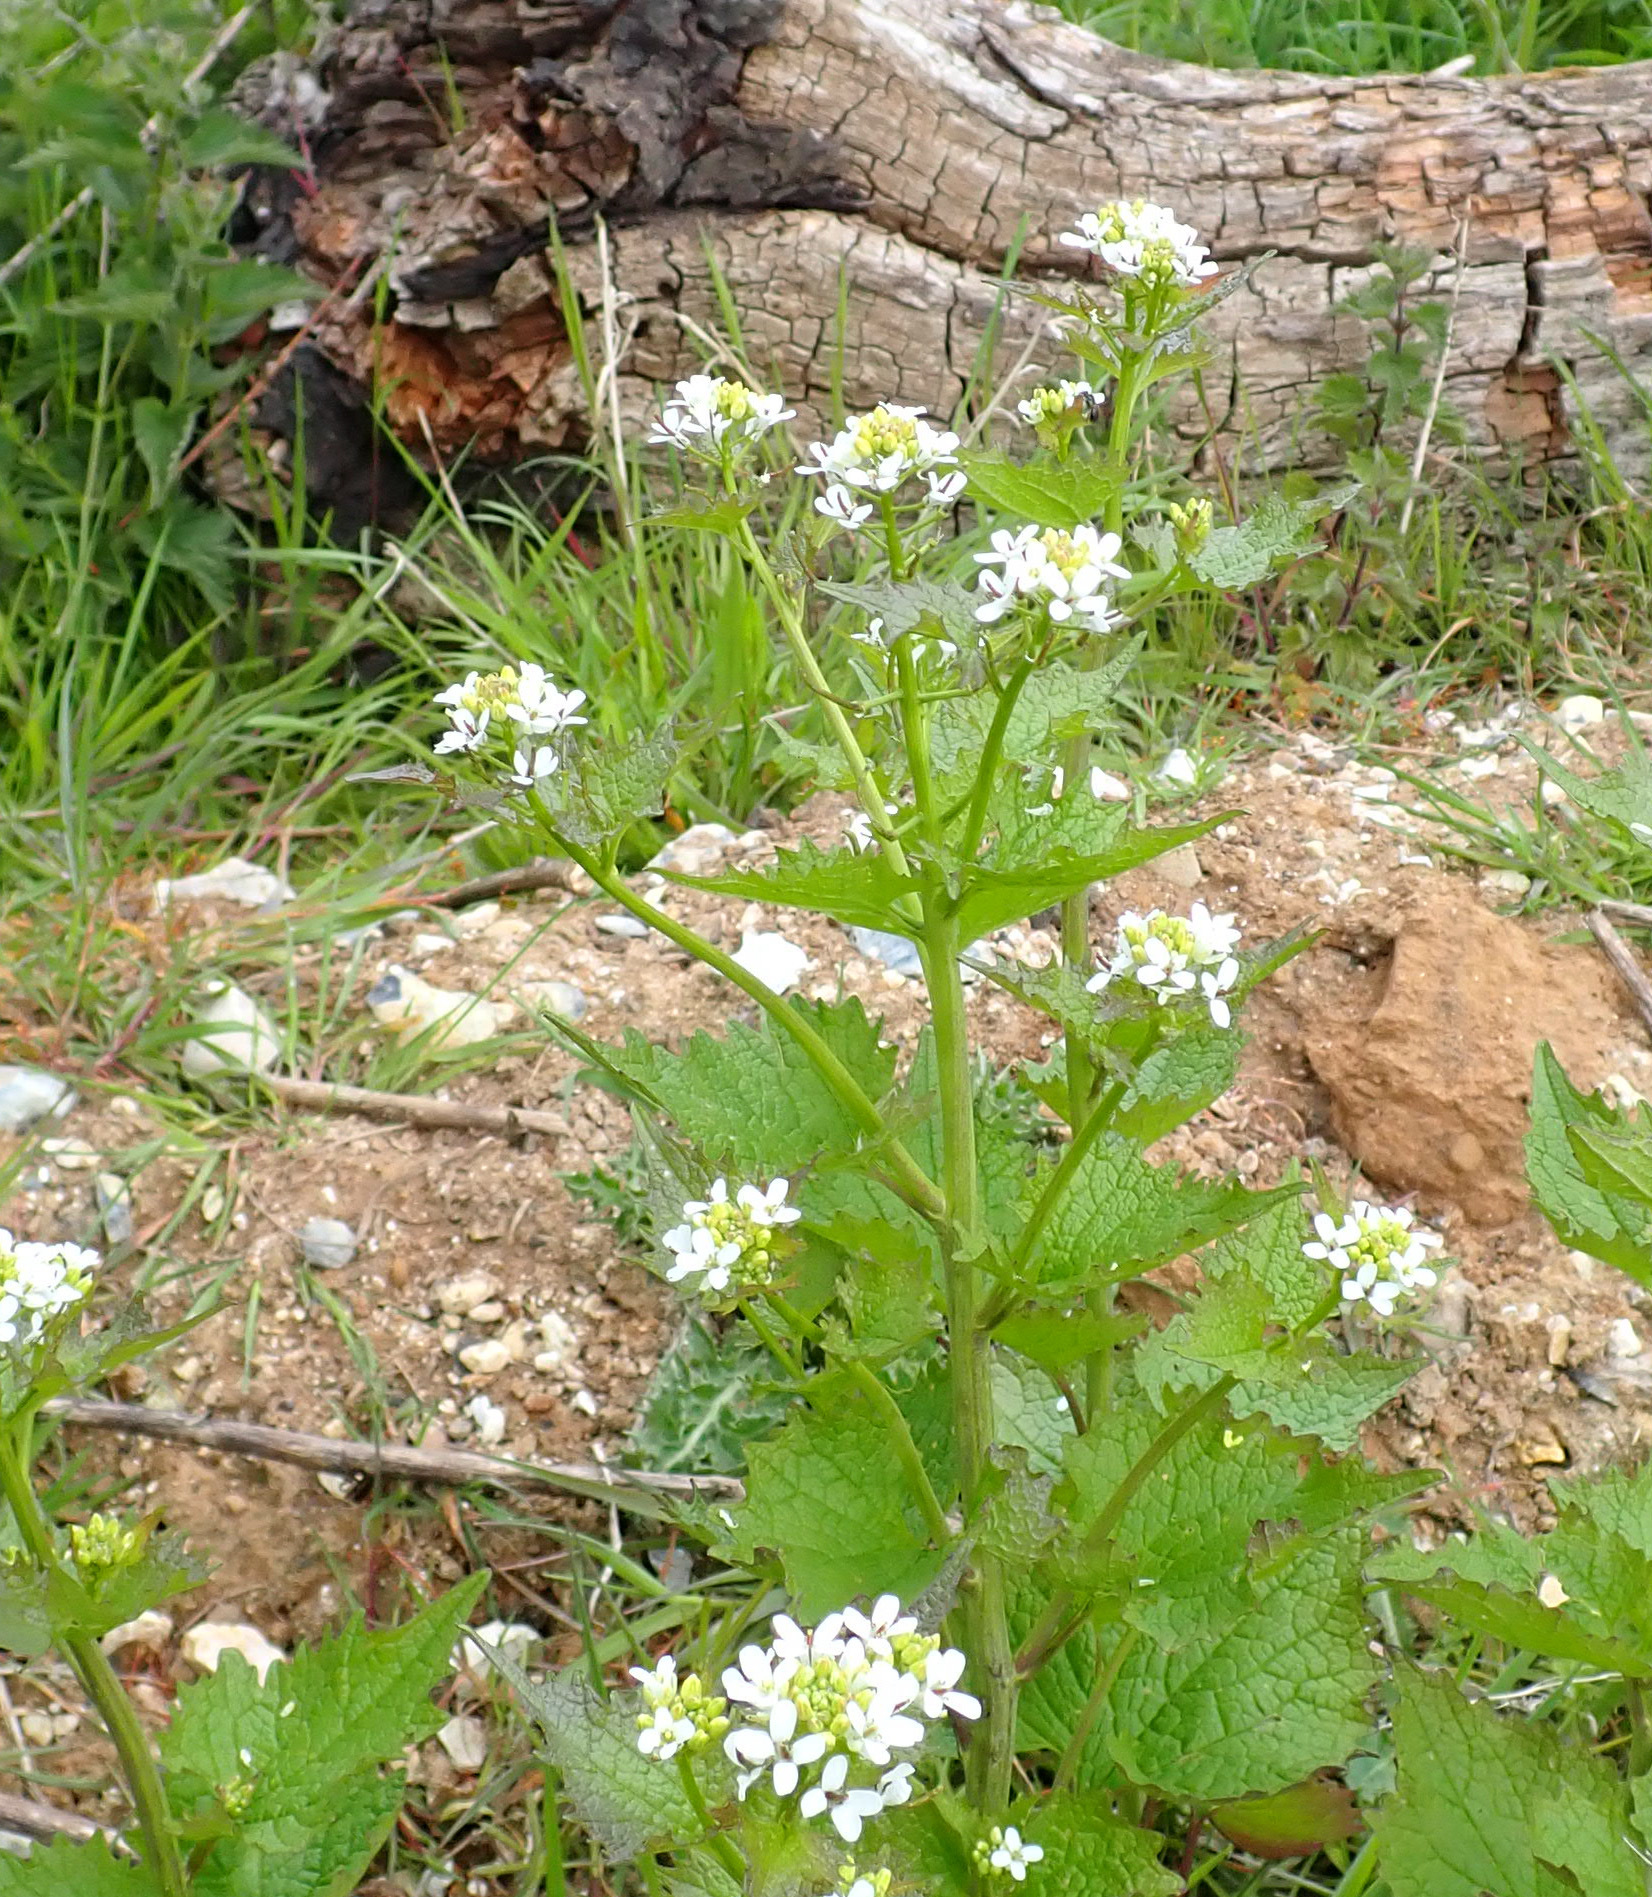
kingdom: Plantae
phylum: Tracheophyta
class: Magnoliopsida
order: Brassicales
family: Brassicaceae
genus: Alliaria
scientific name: Alliaria petiolata
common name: Garlic mustard
